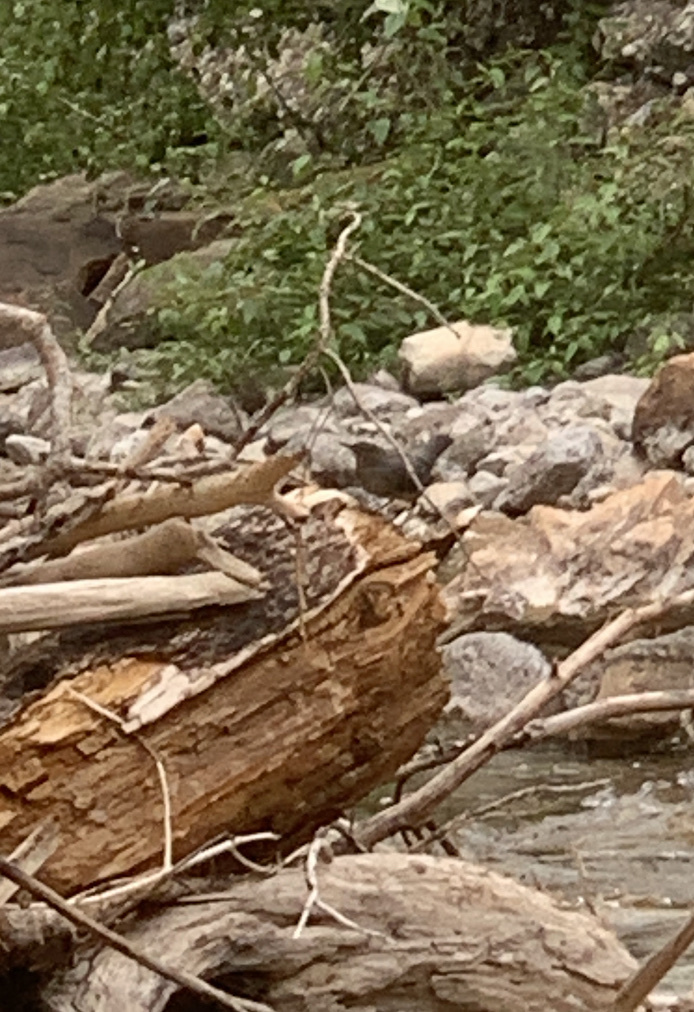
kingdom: Animalia
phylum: Chordata
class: Aves
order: Passeriformes
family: Cinclidae
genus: Cinclus
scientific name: Cinclus mexicanus
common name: American dipper
